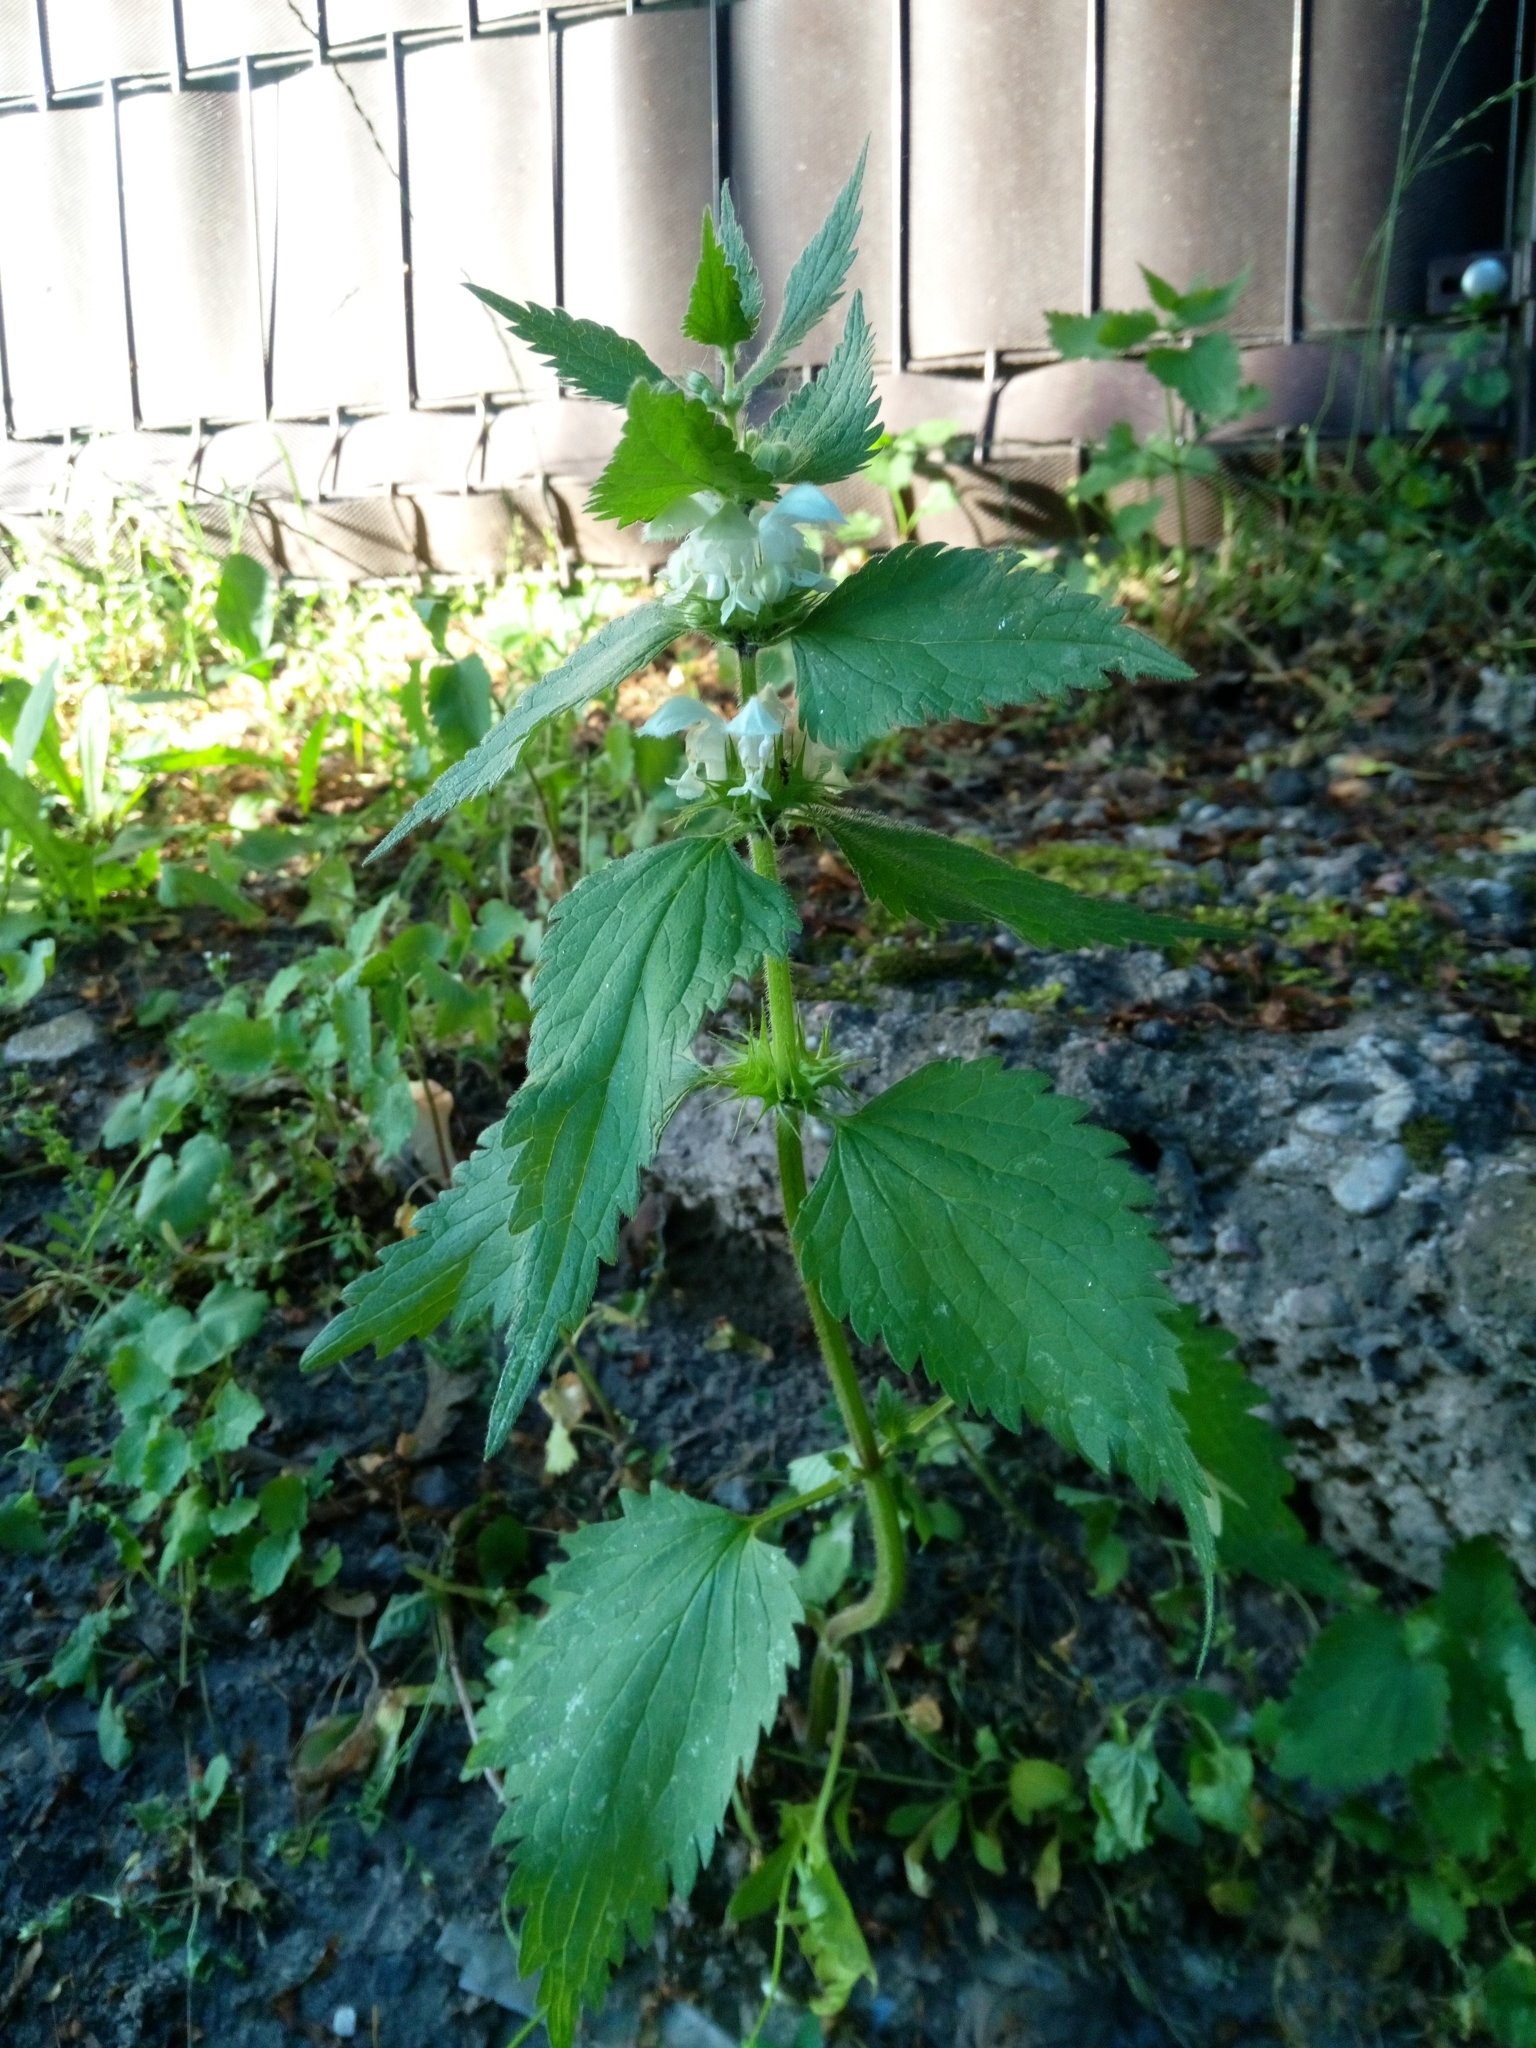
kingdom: Plantae
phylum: Tracheophyta
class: Magnoliopsida
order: Lamiales
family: Lamiaceae
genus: Lamium
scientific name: Lamium album
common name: White dead-nettle
